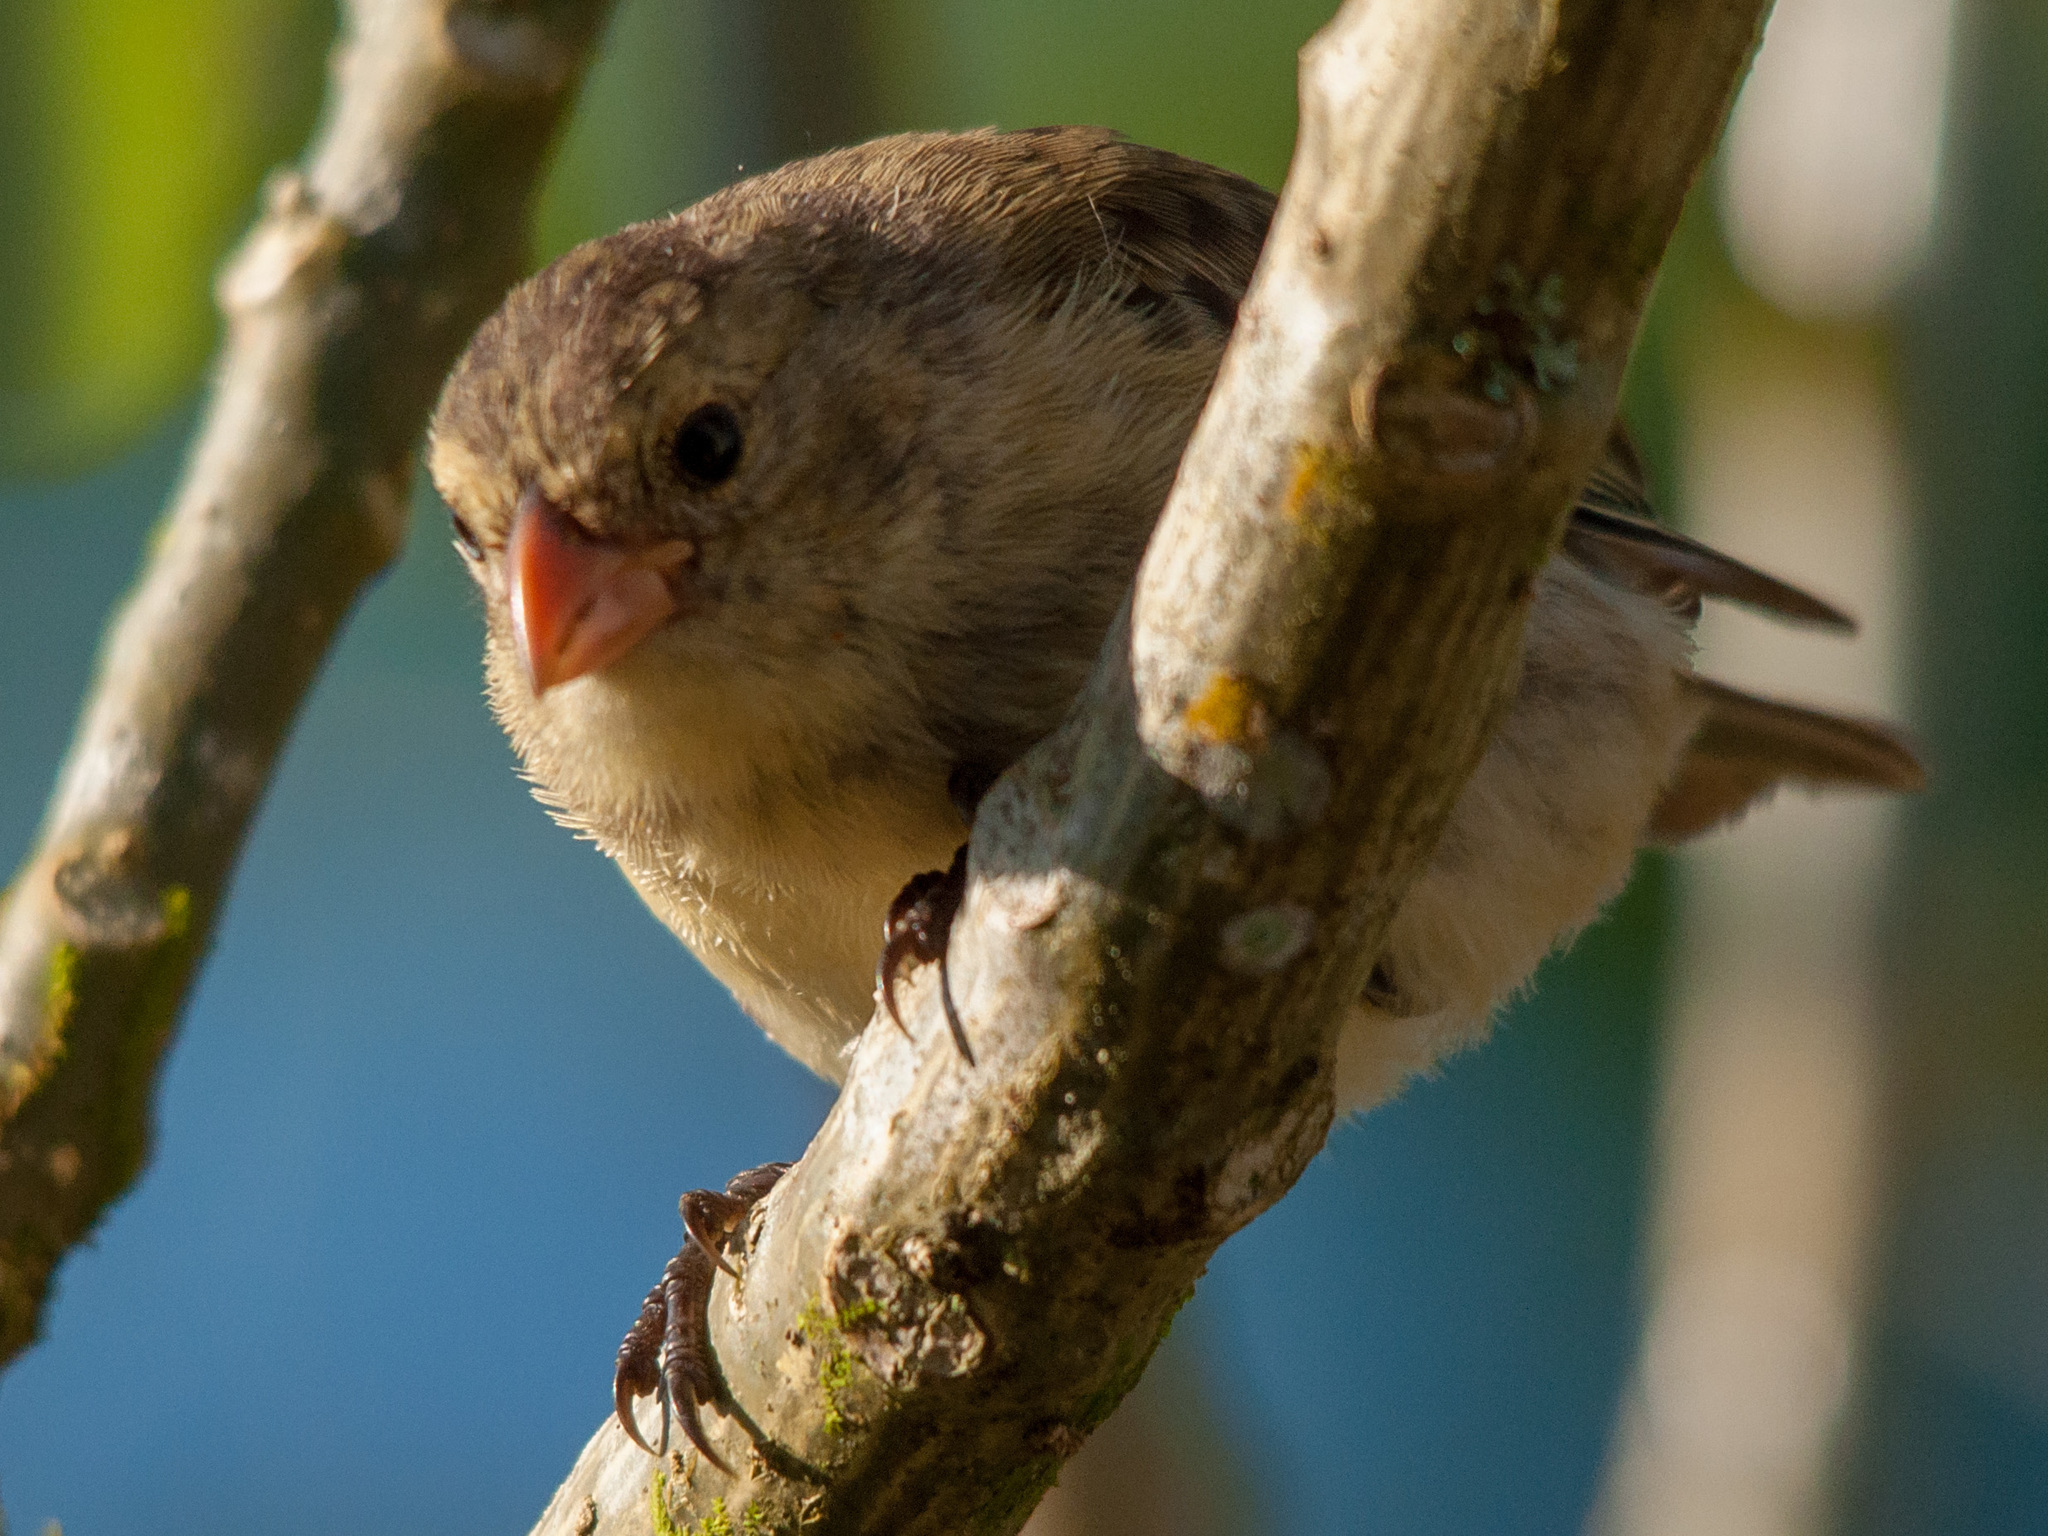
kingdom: Animalia
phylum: Chordata
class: Aves
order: Passeriformes
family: Thraupidae
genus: Camarhynchus
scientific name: Camarhynchus parvulus
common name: Small tree finch
